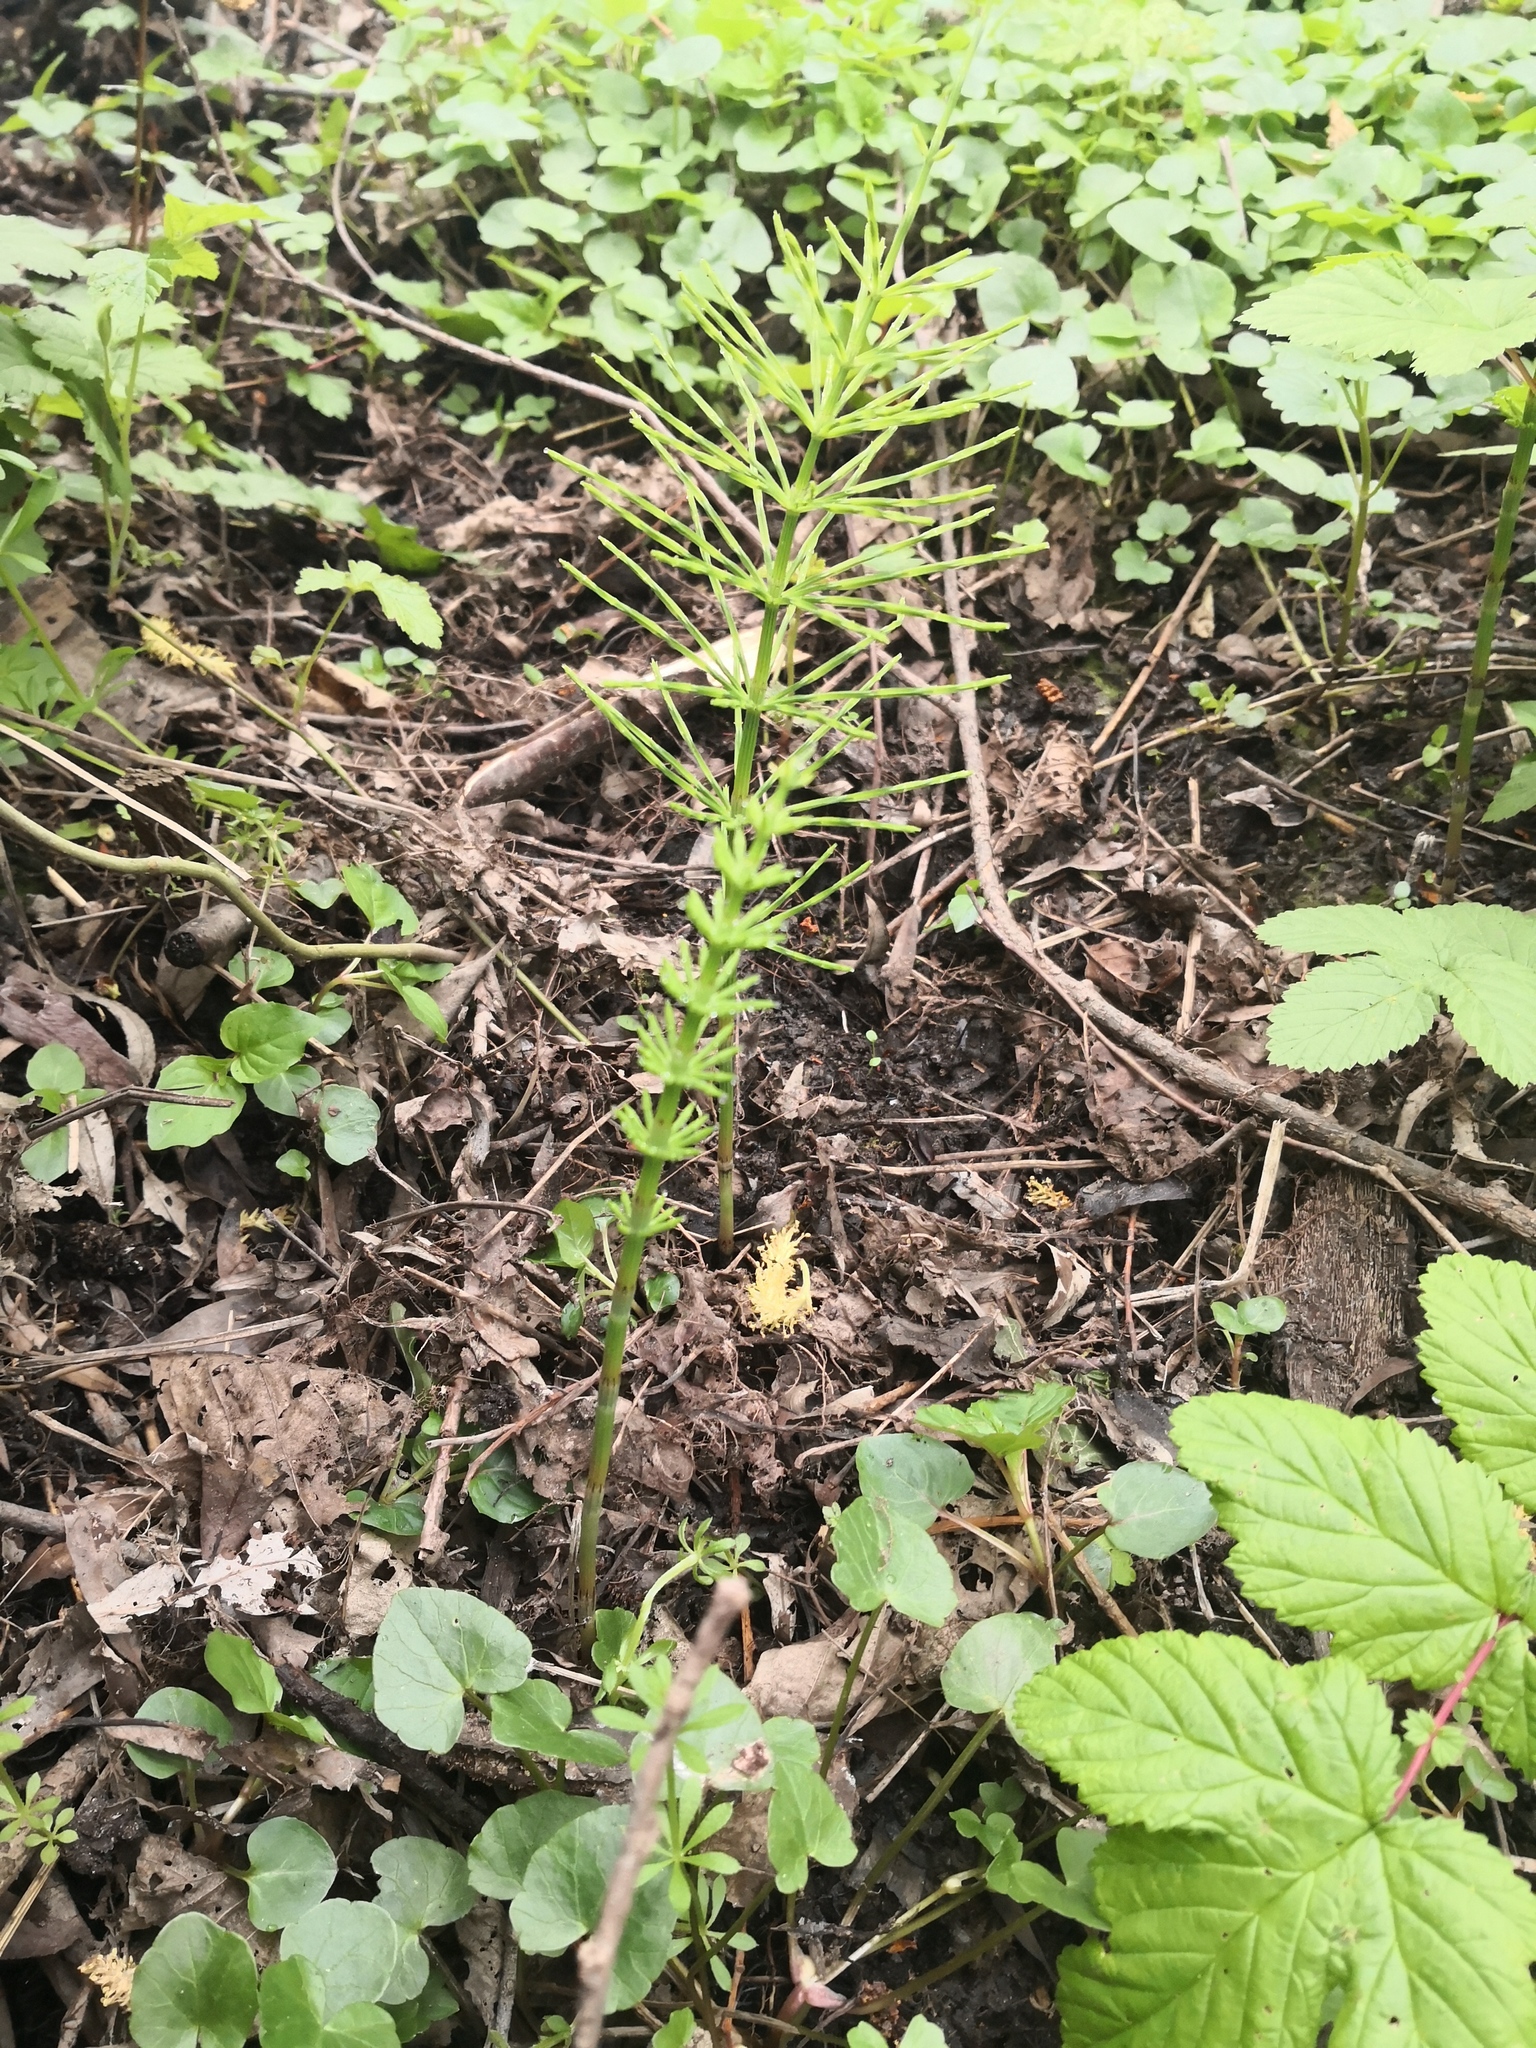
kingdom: Plantae
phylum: Tracheophyta
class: Polypodiopsida
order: Equisetales
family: Equisetaceae
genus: Equisetum
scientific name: Equisetum arvense
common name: Field horsetail
